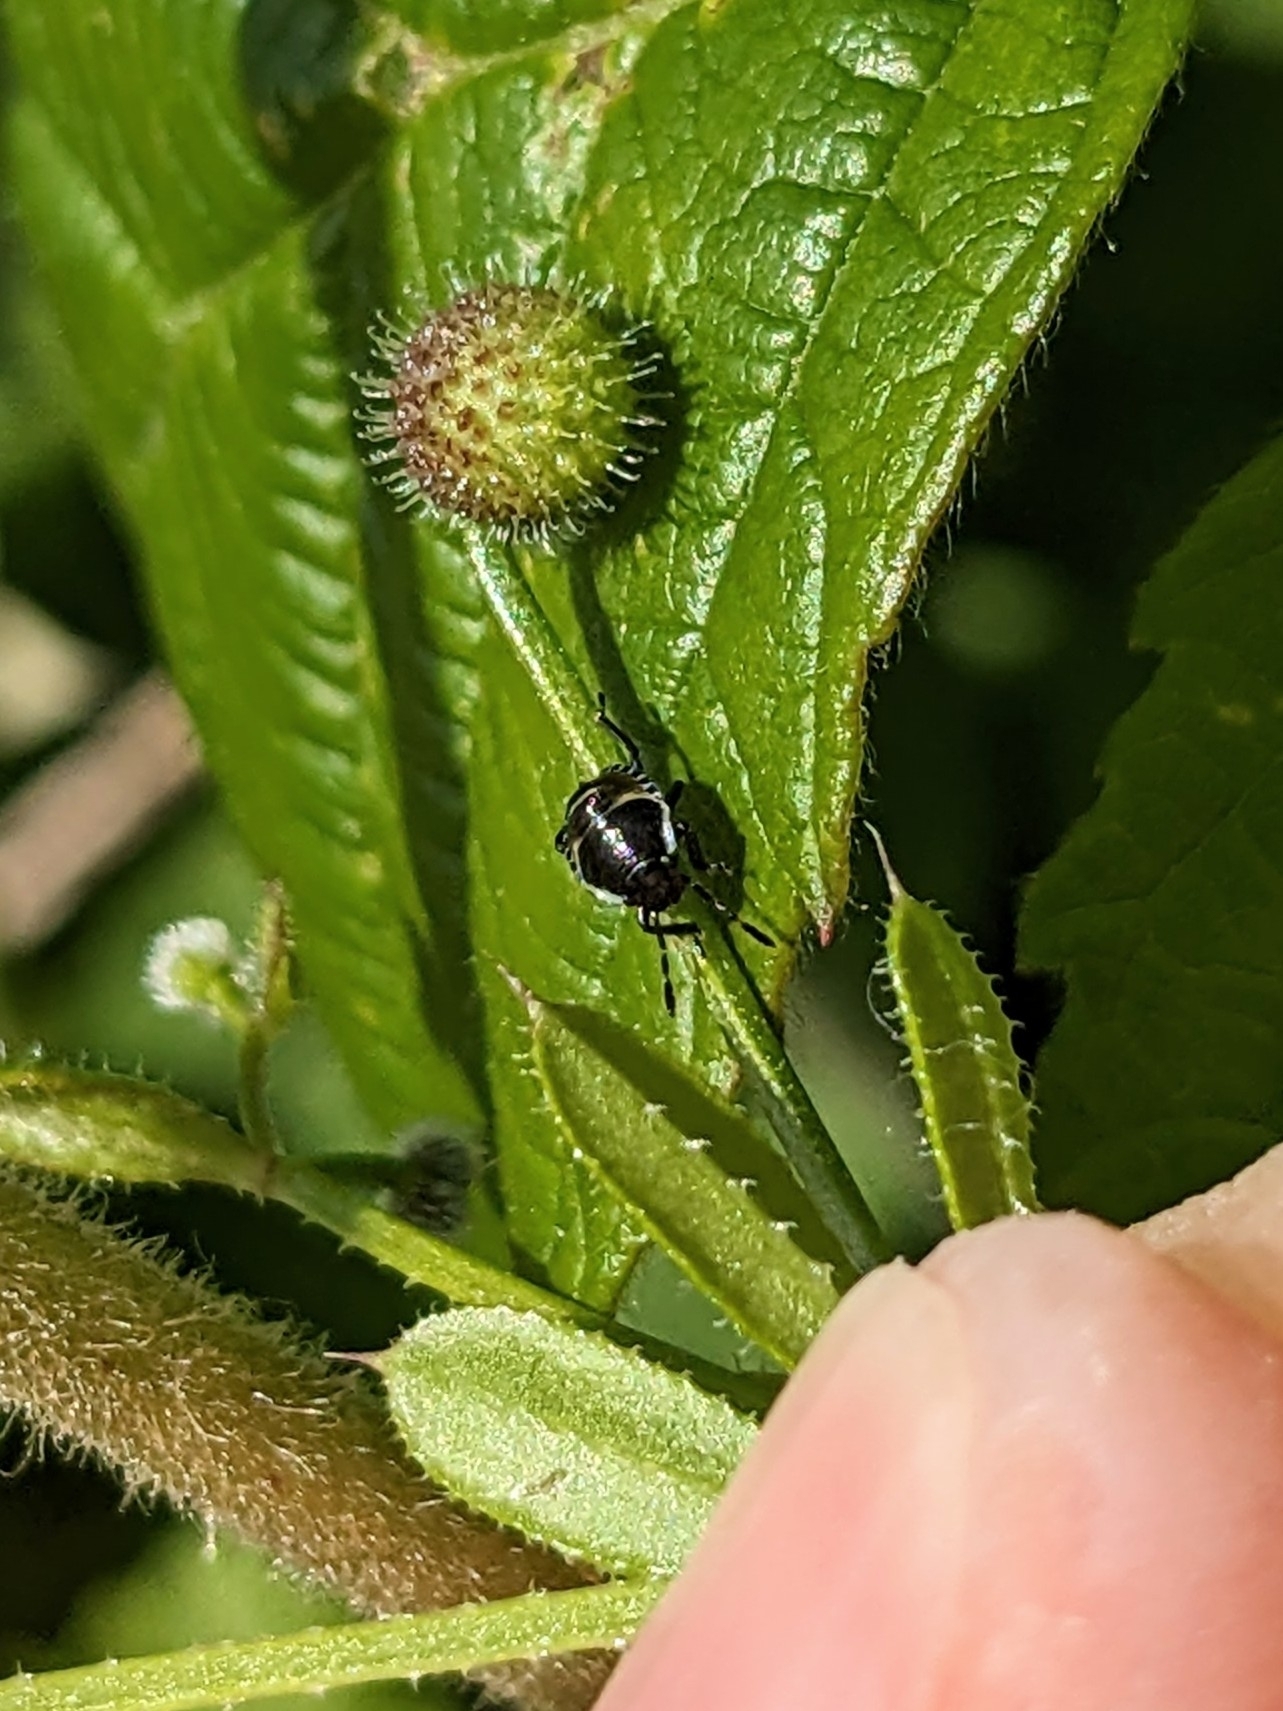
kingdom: Animalia
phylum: Arthropoda
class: Insecta
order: Hemiptera
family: Pentatomidae
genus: Palomena
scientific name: Palomena prasina
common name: Green shieldbug
